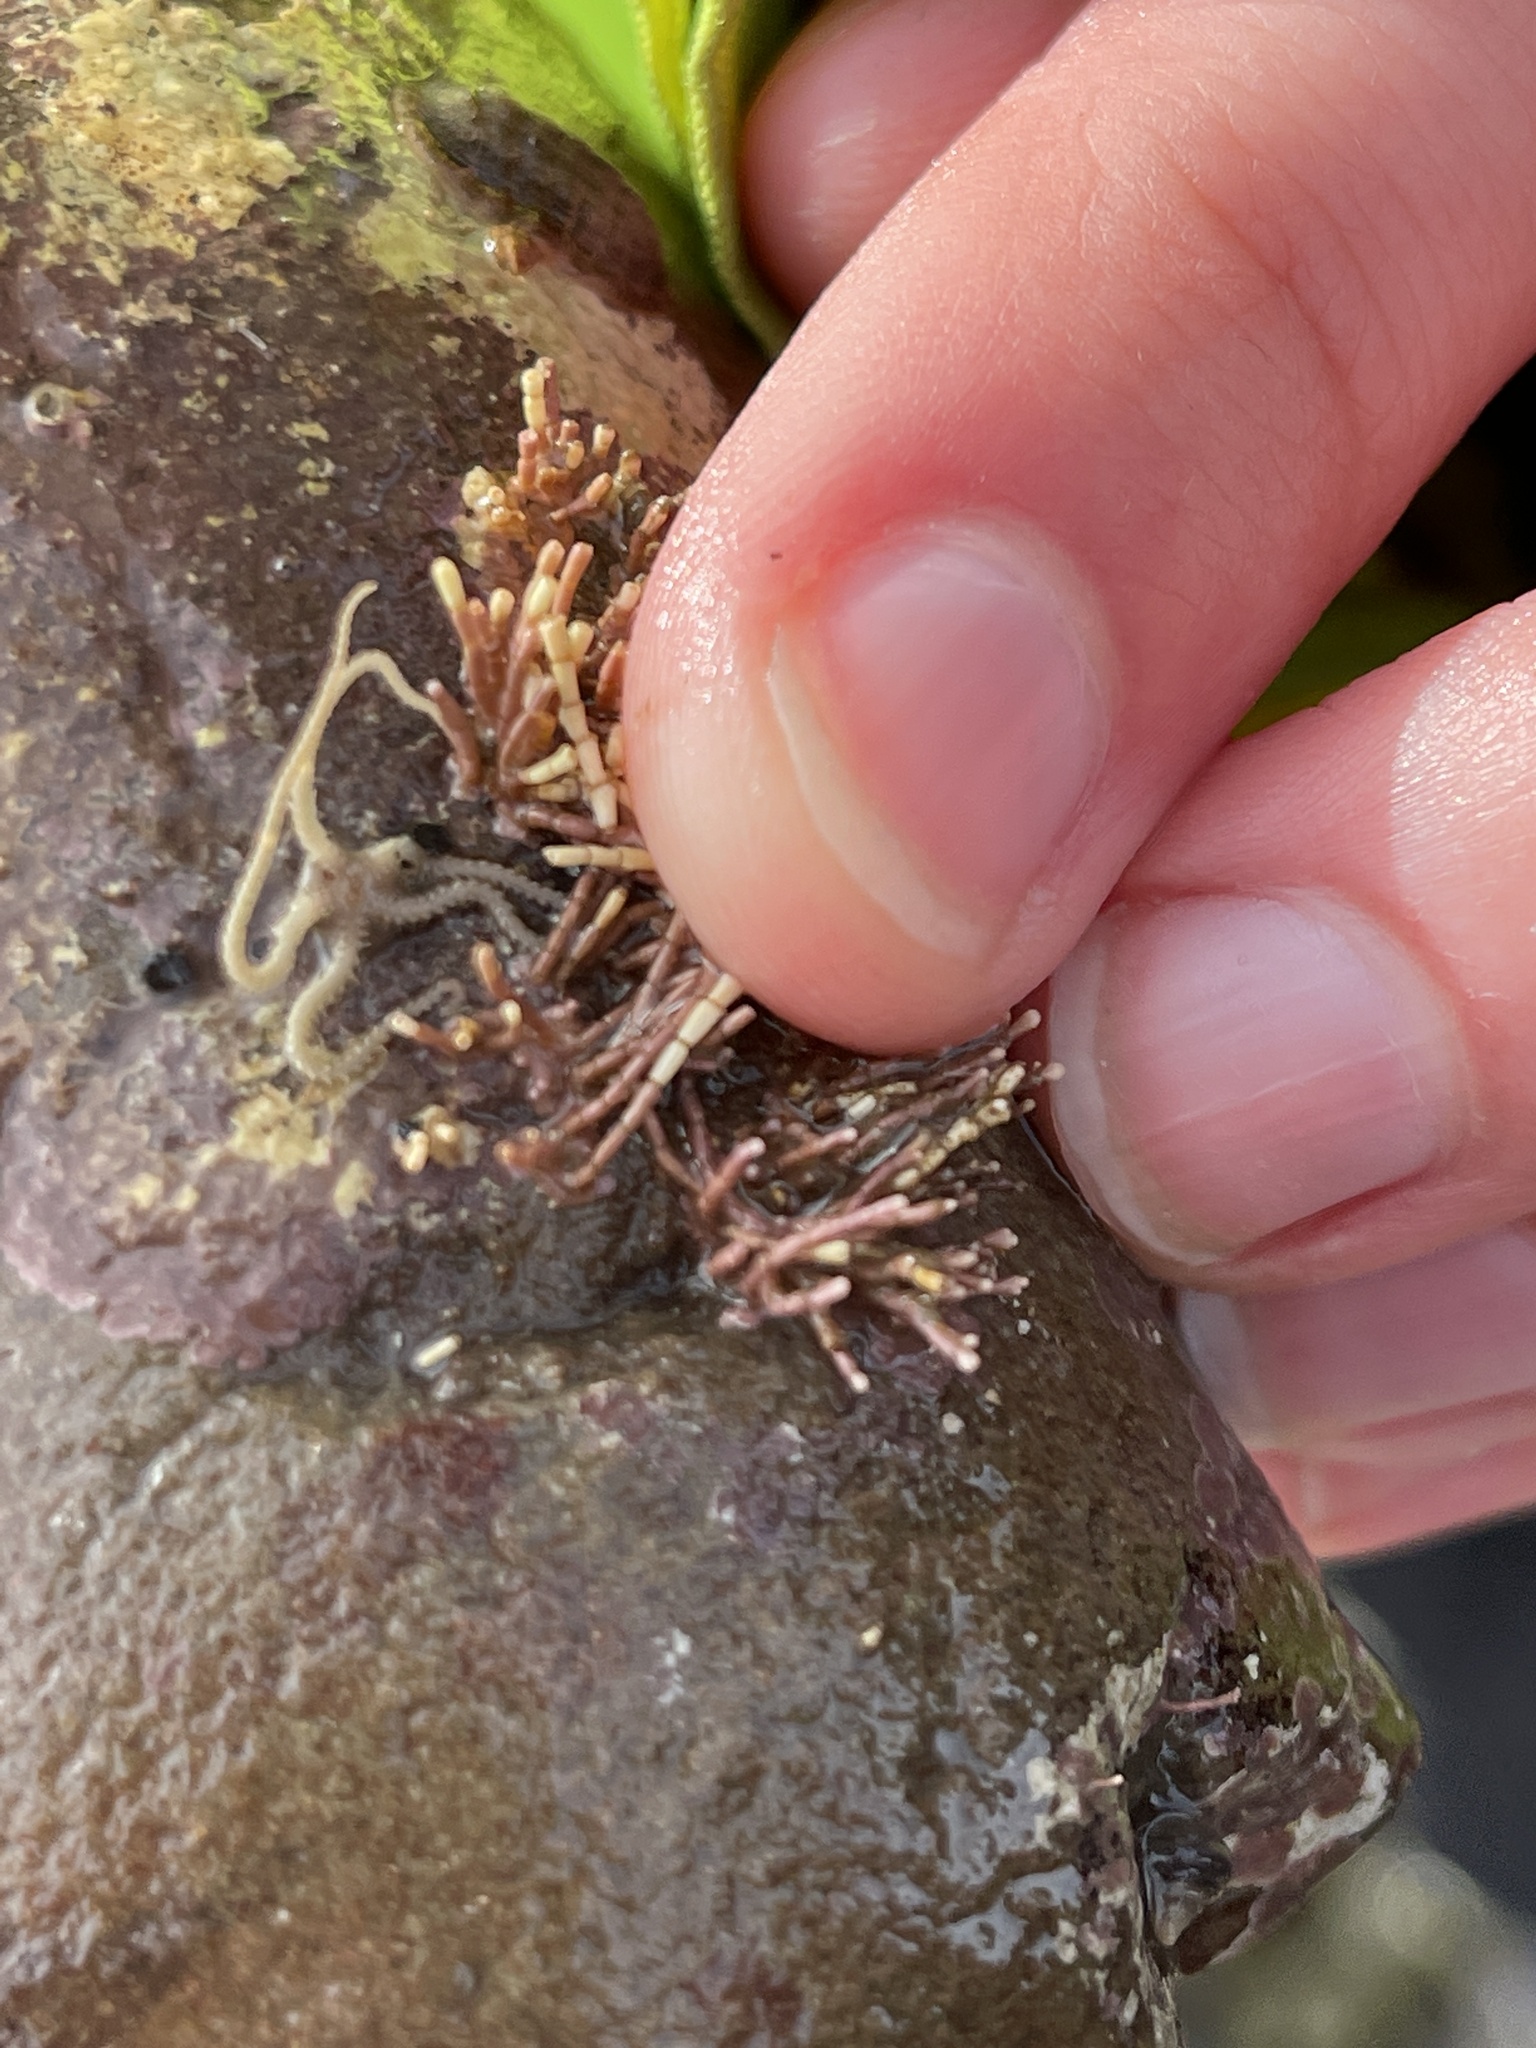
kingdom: Animalia
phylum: Echinodermata
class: Ophiuroidea
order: Amphilepidida
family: Amphiuridae
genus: Amphipholis
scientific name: Amphipholis squamata
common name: Brooding snake star
